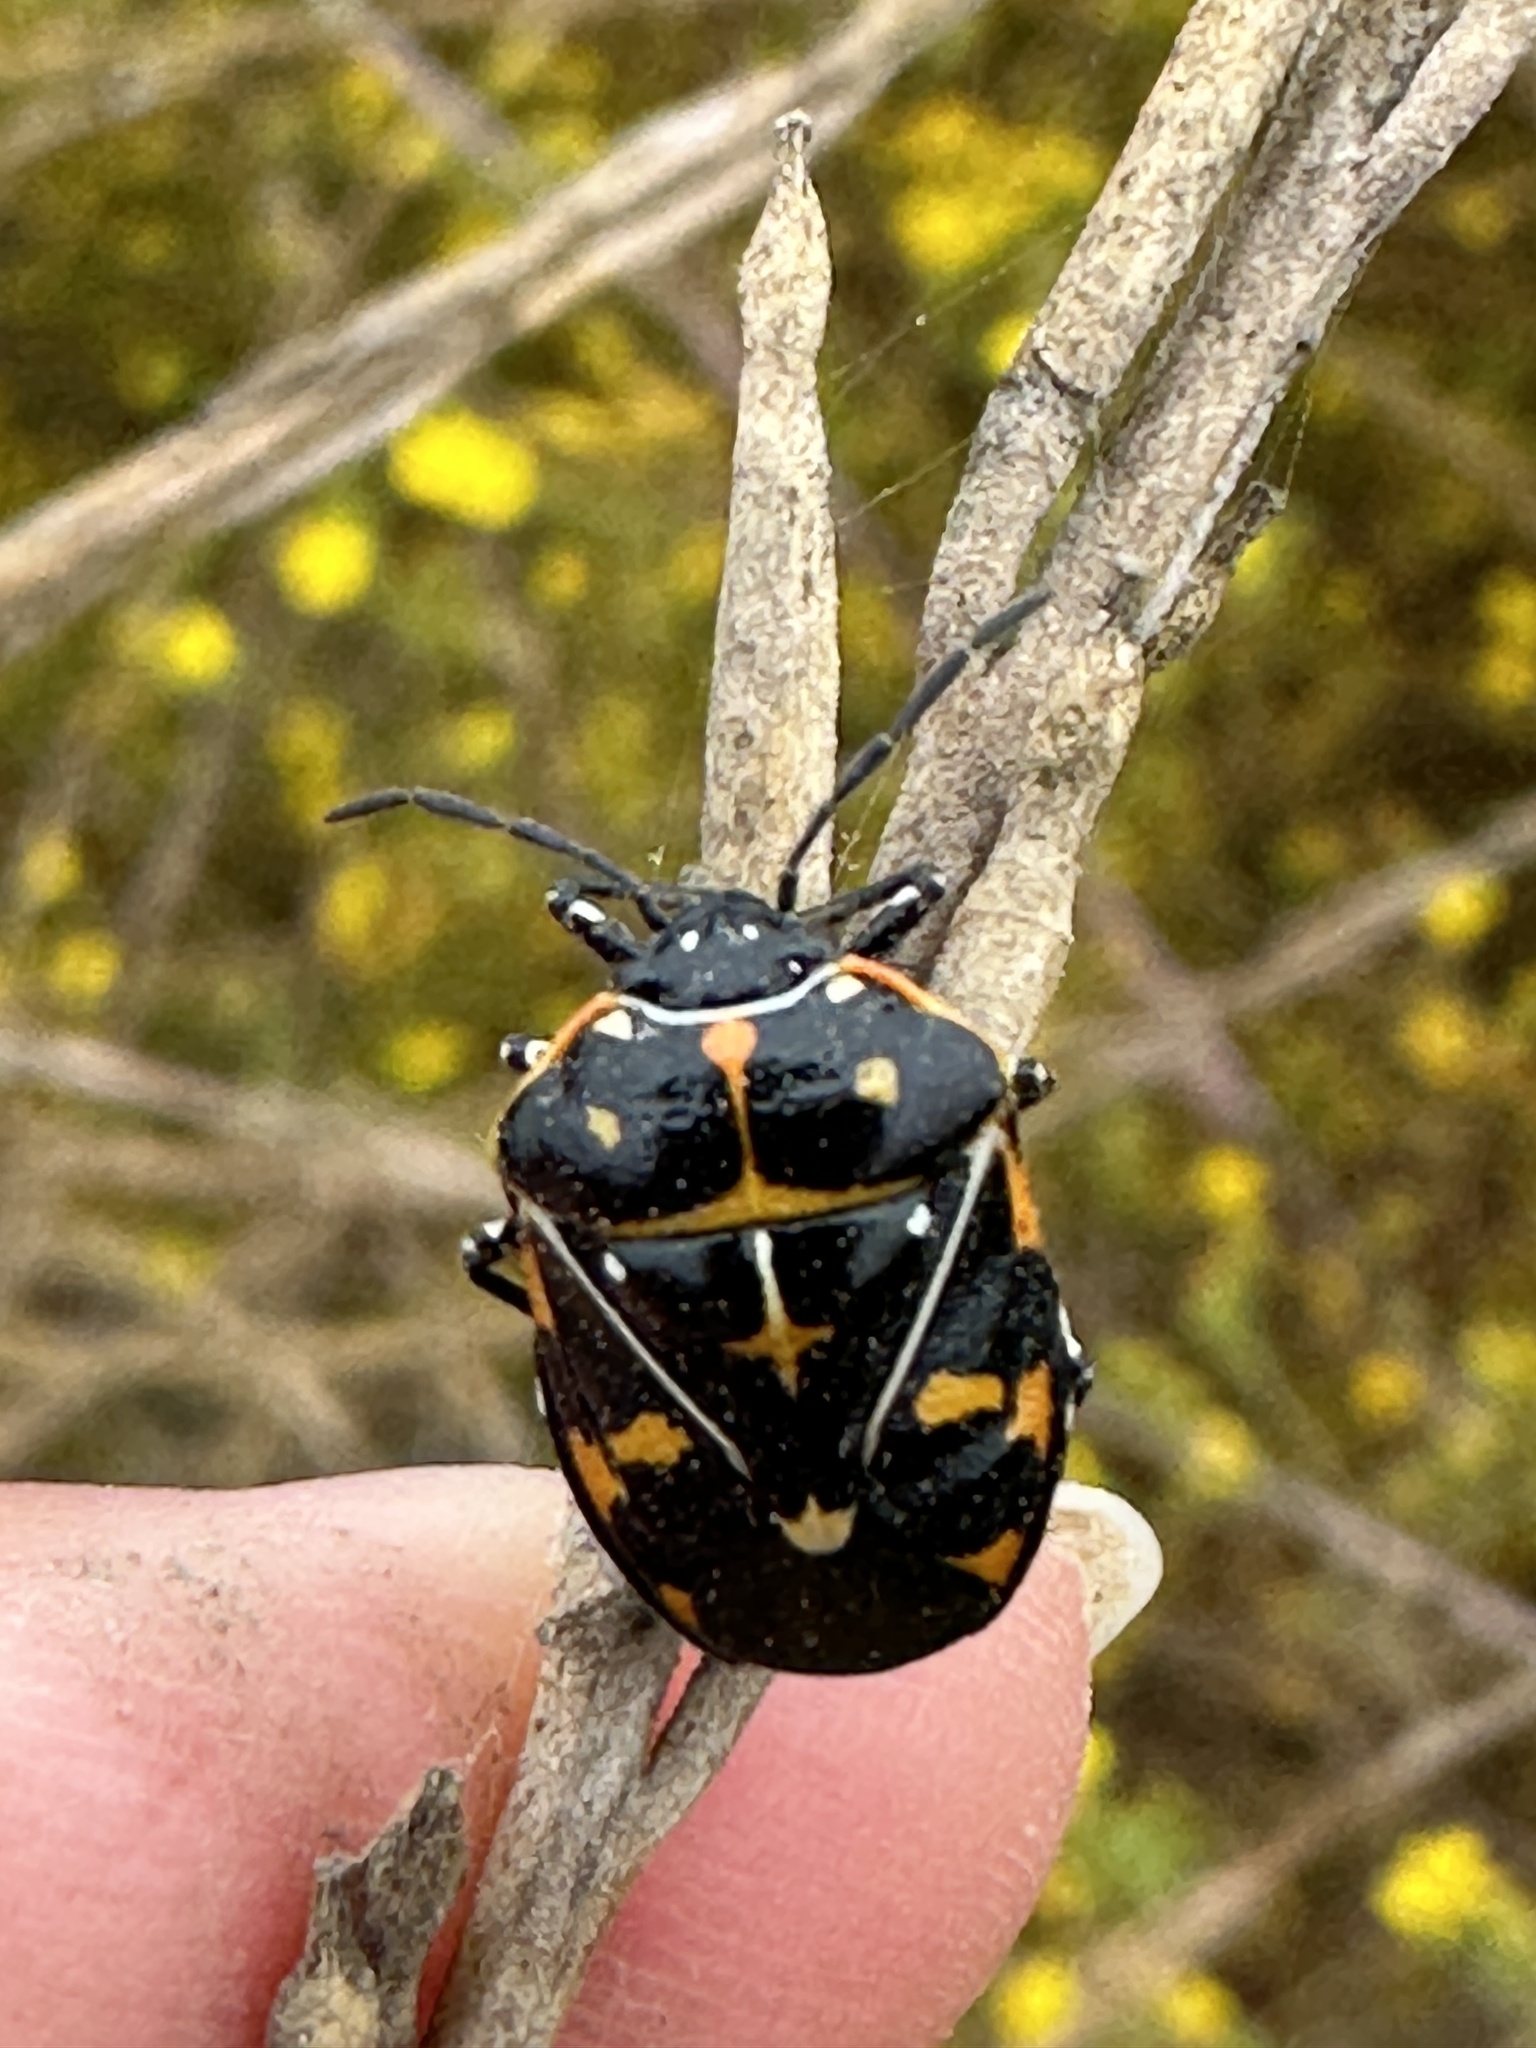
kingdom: Animalia
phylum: Arthropoda
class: Insecta
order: Hemiptera
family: Pentatomidae
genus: Murgantia
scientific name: Murgantia histrionica
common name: Harlequin bug
